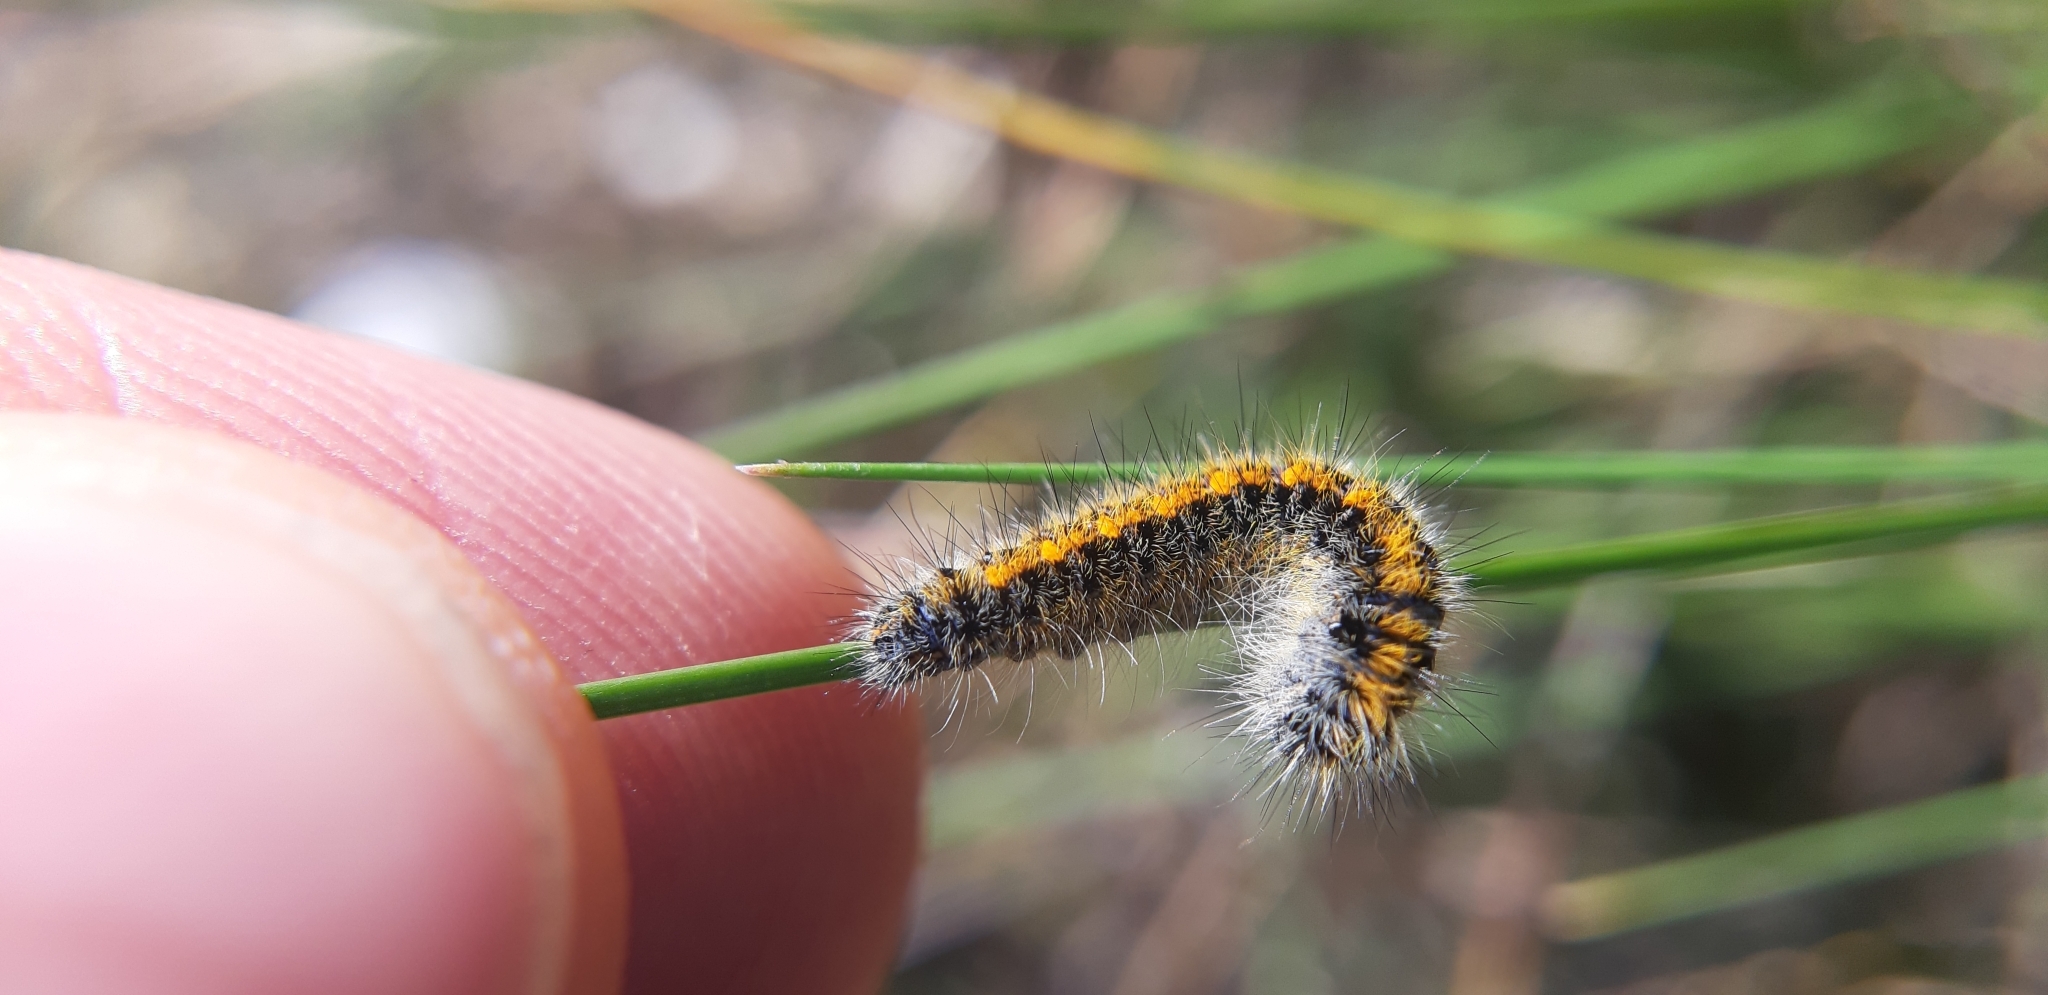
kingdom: Animalia
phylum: Arthropoda
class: Insecta
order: Lepidoptera
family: Lasiocampidae
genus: Lasiocampa
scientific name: Lasiocampa trifolii
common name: Grass eggar
